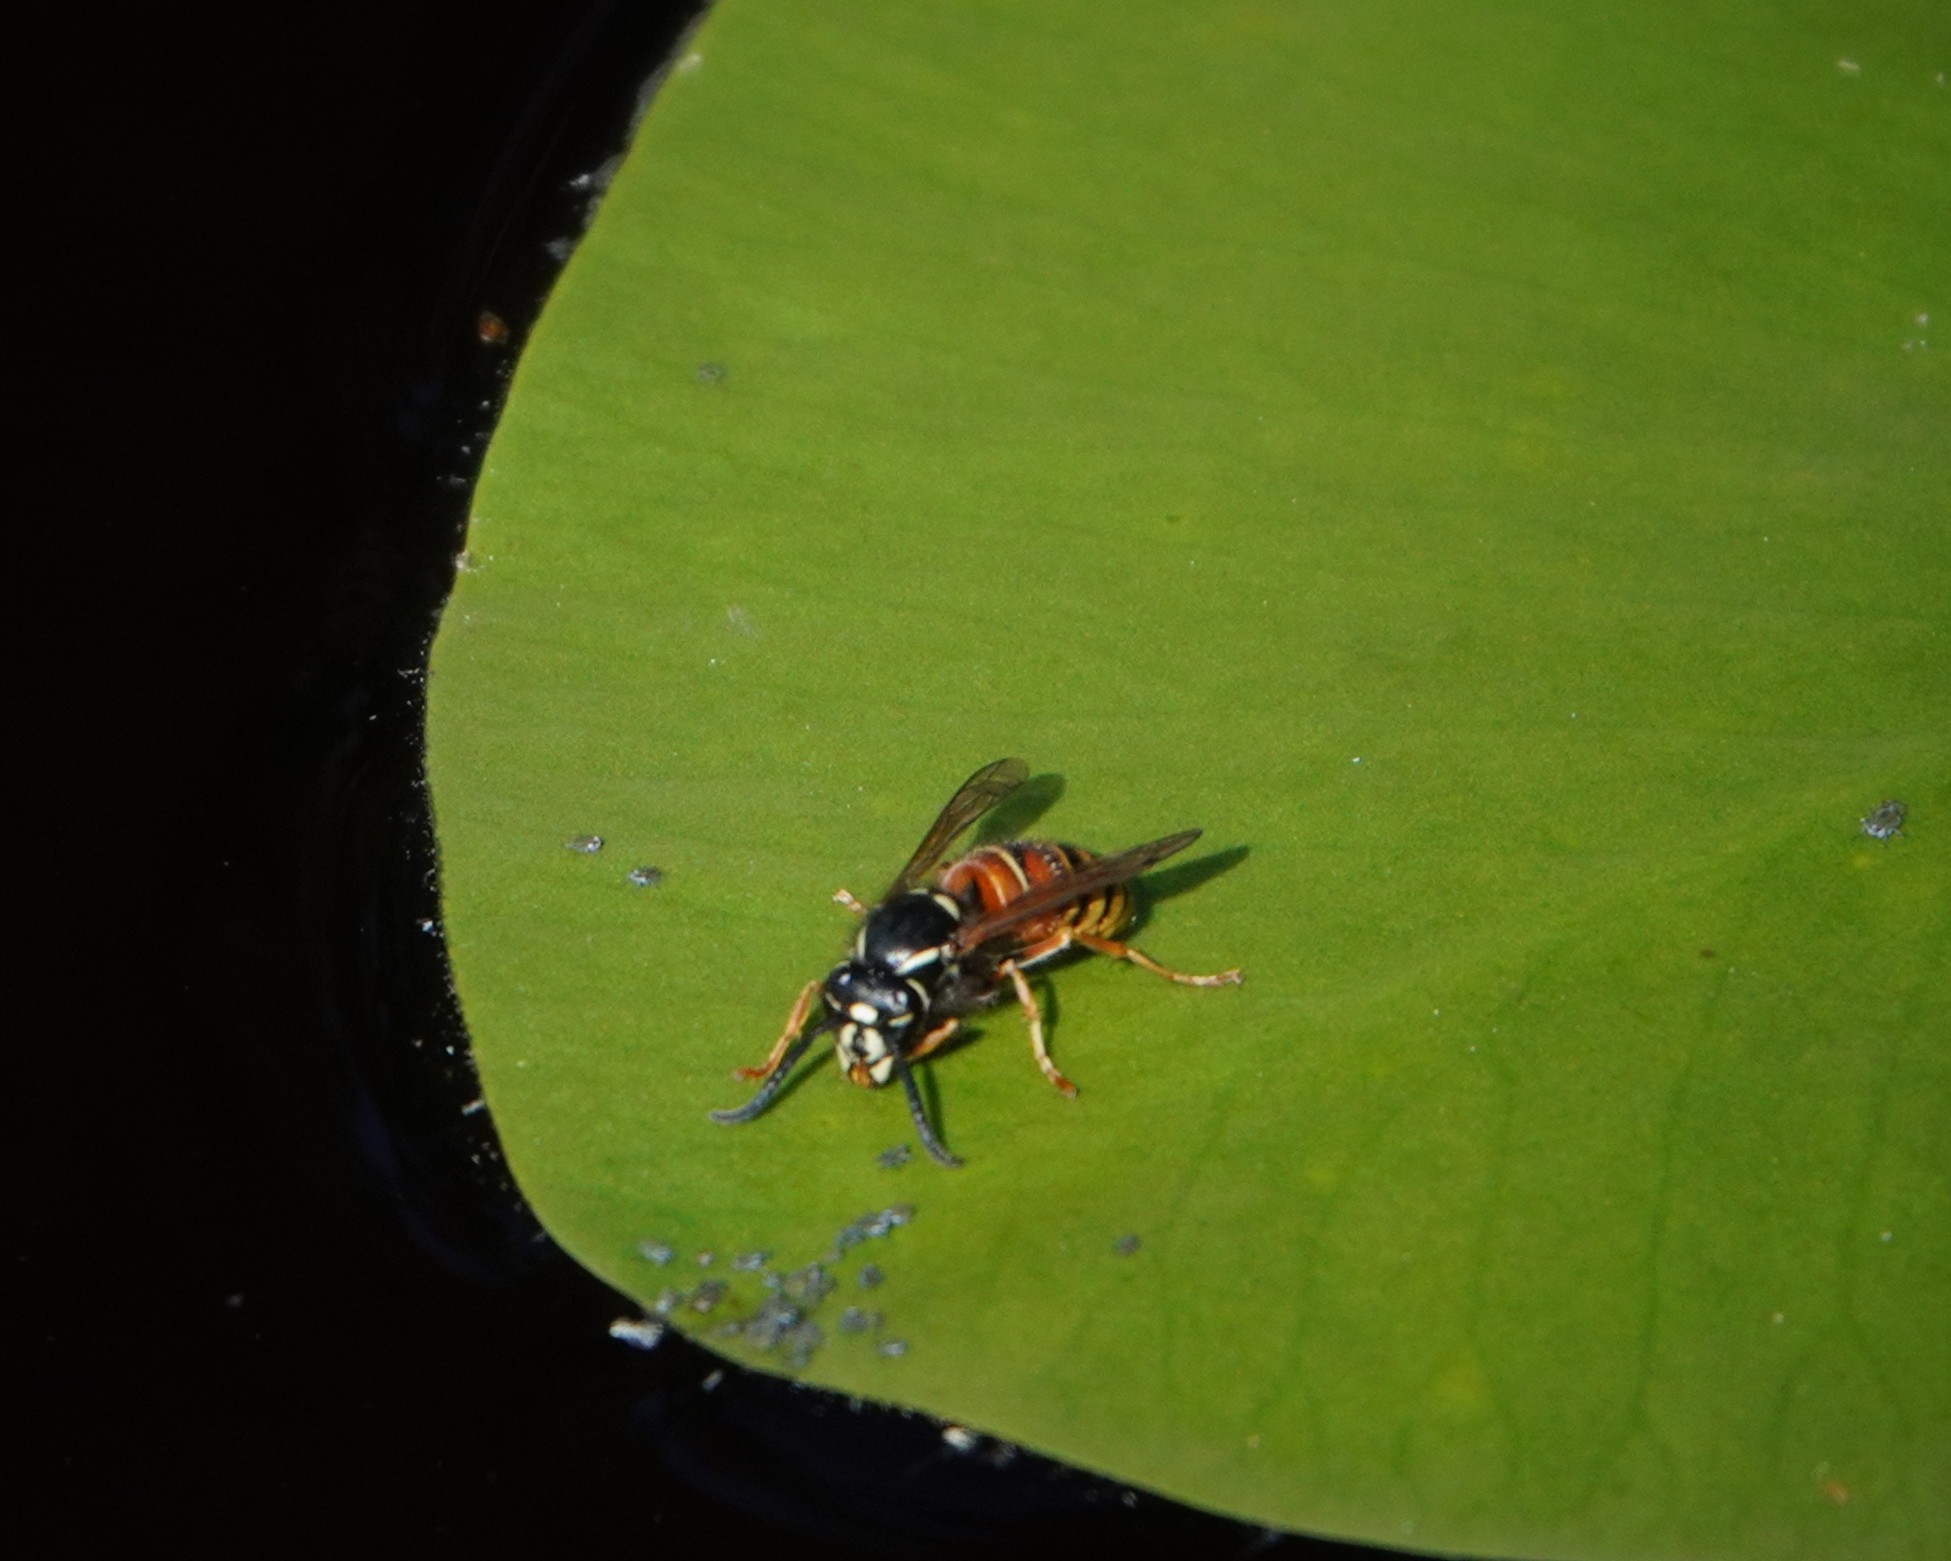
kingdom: Animalia
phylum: Arthropoda
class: Insecta
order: Hymenoptera
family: Vespidae
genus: Vespula
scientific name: Vespula rufa
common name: Red wasp
